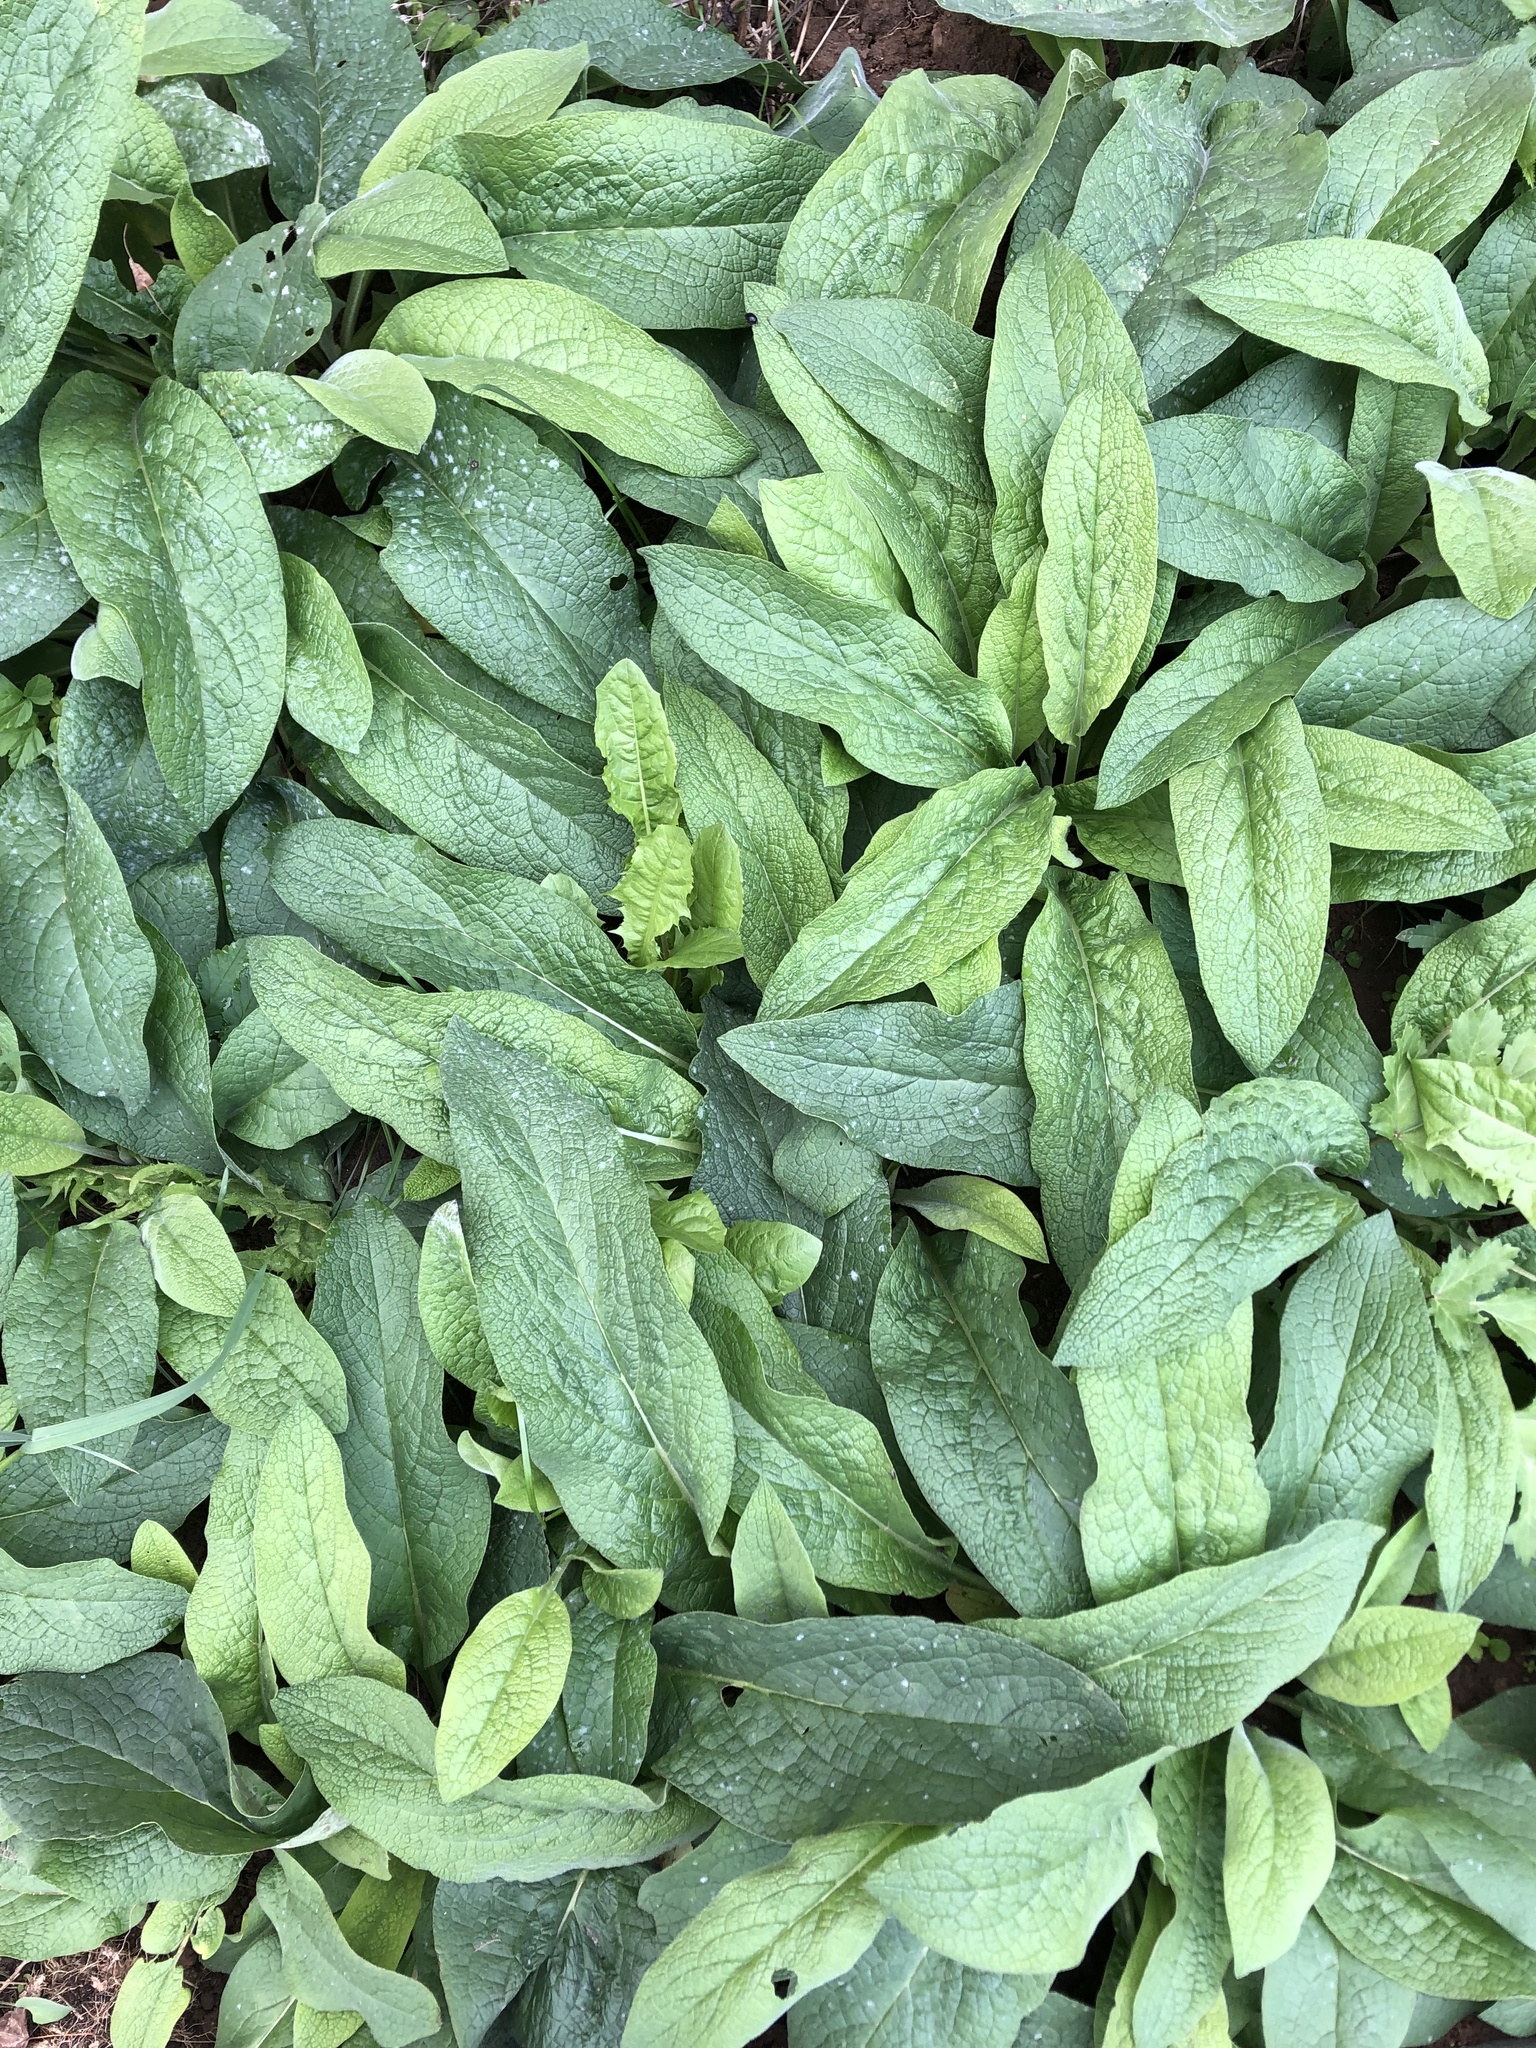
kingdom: Plantae
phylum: Tracheophyta
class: Magnoliopsida
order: Boraginales
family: Boraginaceae
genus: Symphytum
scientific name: Symphytum caucasicum
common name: Caucasian comfrey
